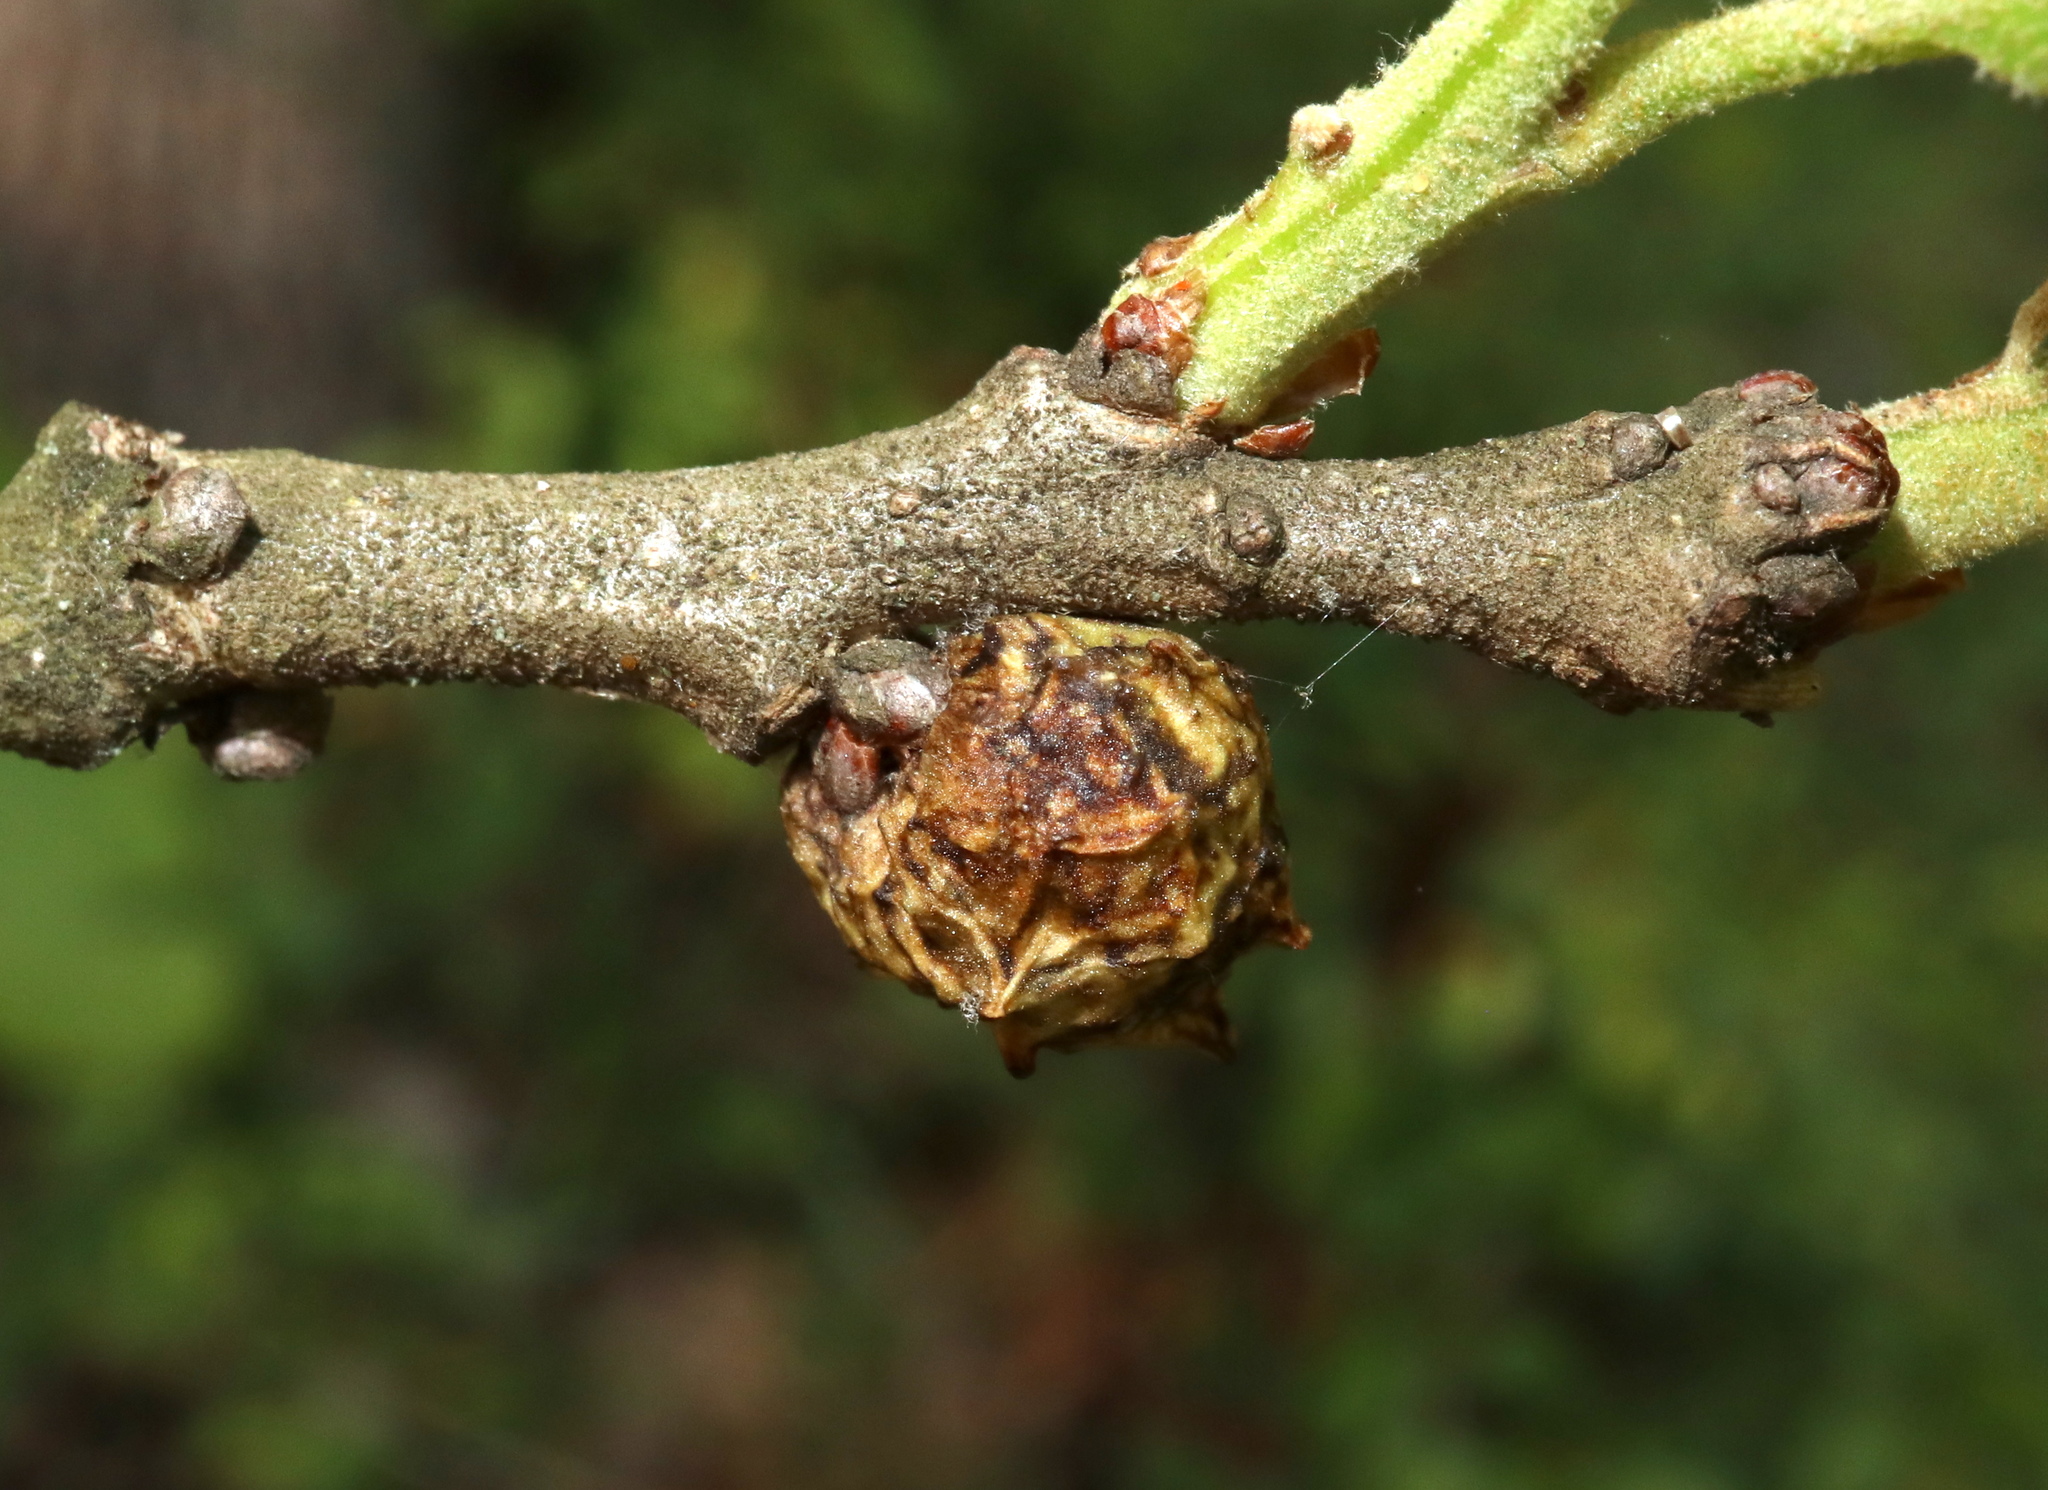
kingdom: Animalia
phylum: Arthropoda
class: Insecta
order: Hymenoptera
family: Cynipidae
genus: Andricus
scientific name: Andricus
